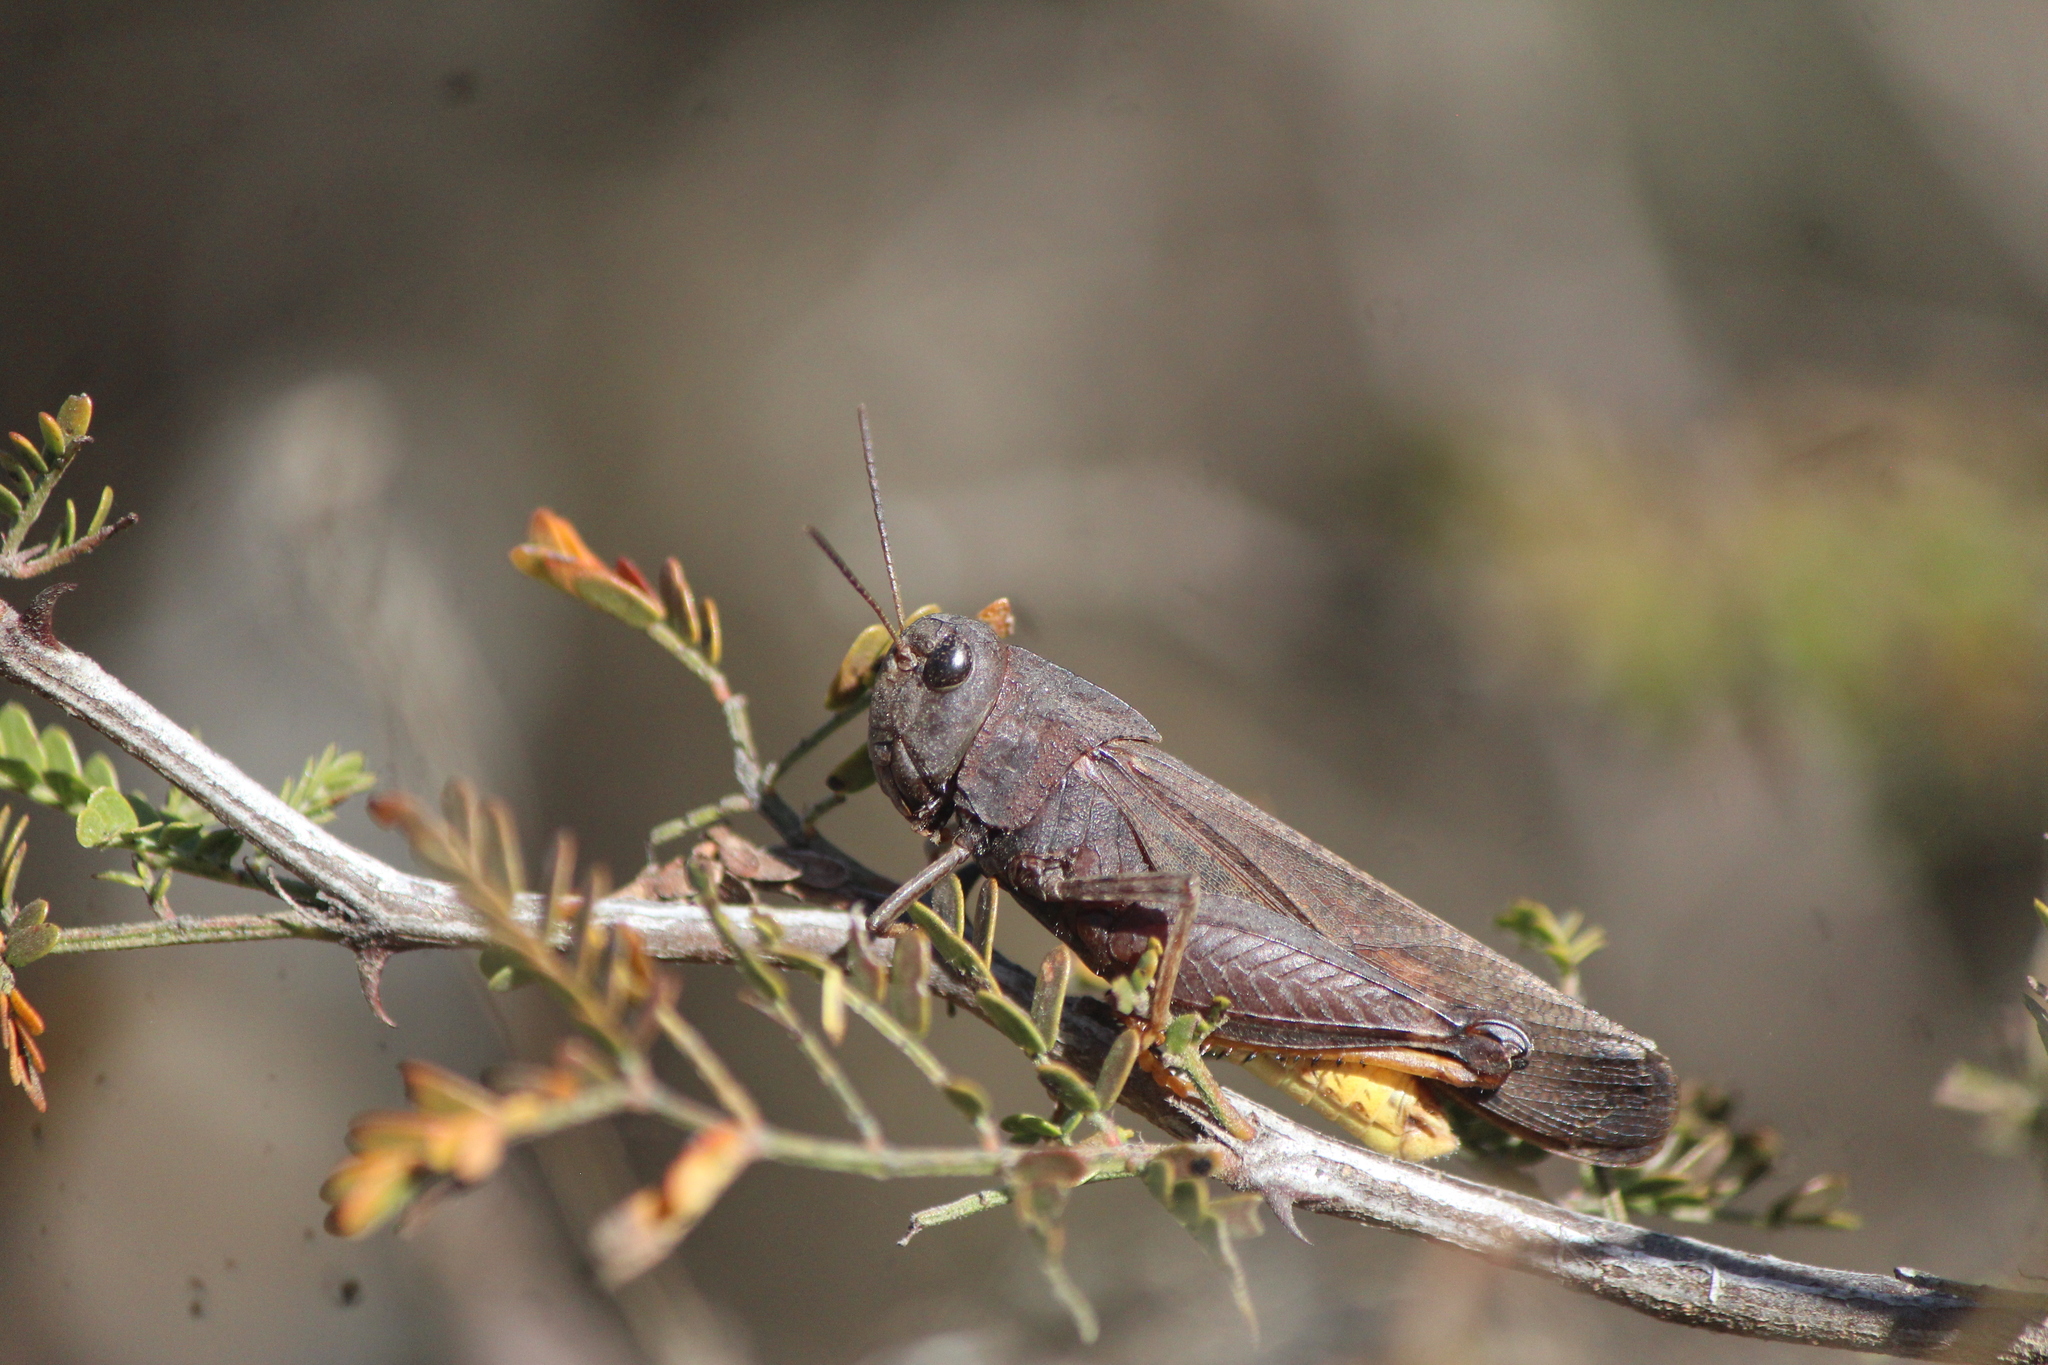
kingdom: Animalia
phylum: Arthropoda
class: Insecta
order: Orthoptera
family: Acrididae
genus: Arphia
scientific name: Arphia nietana
